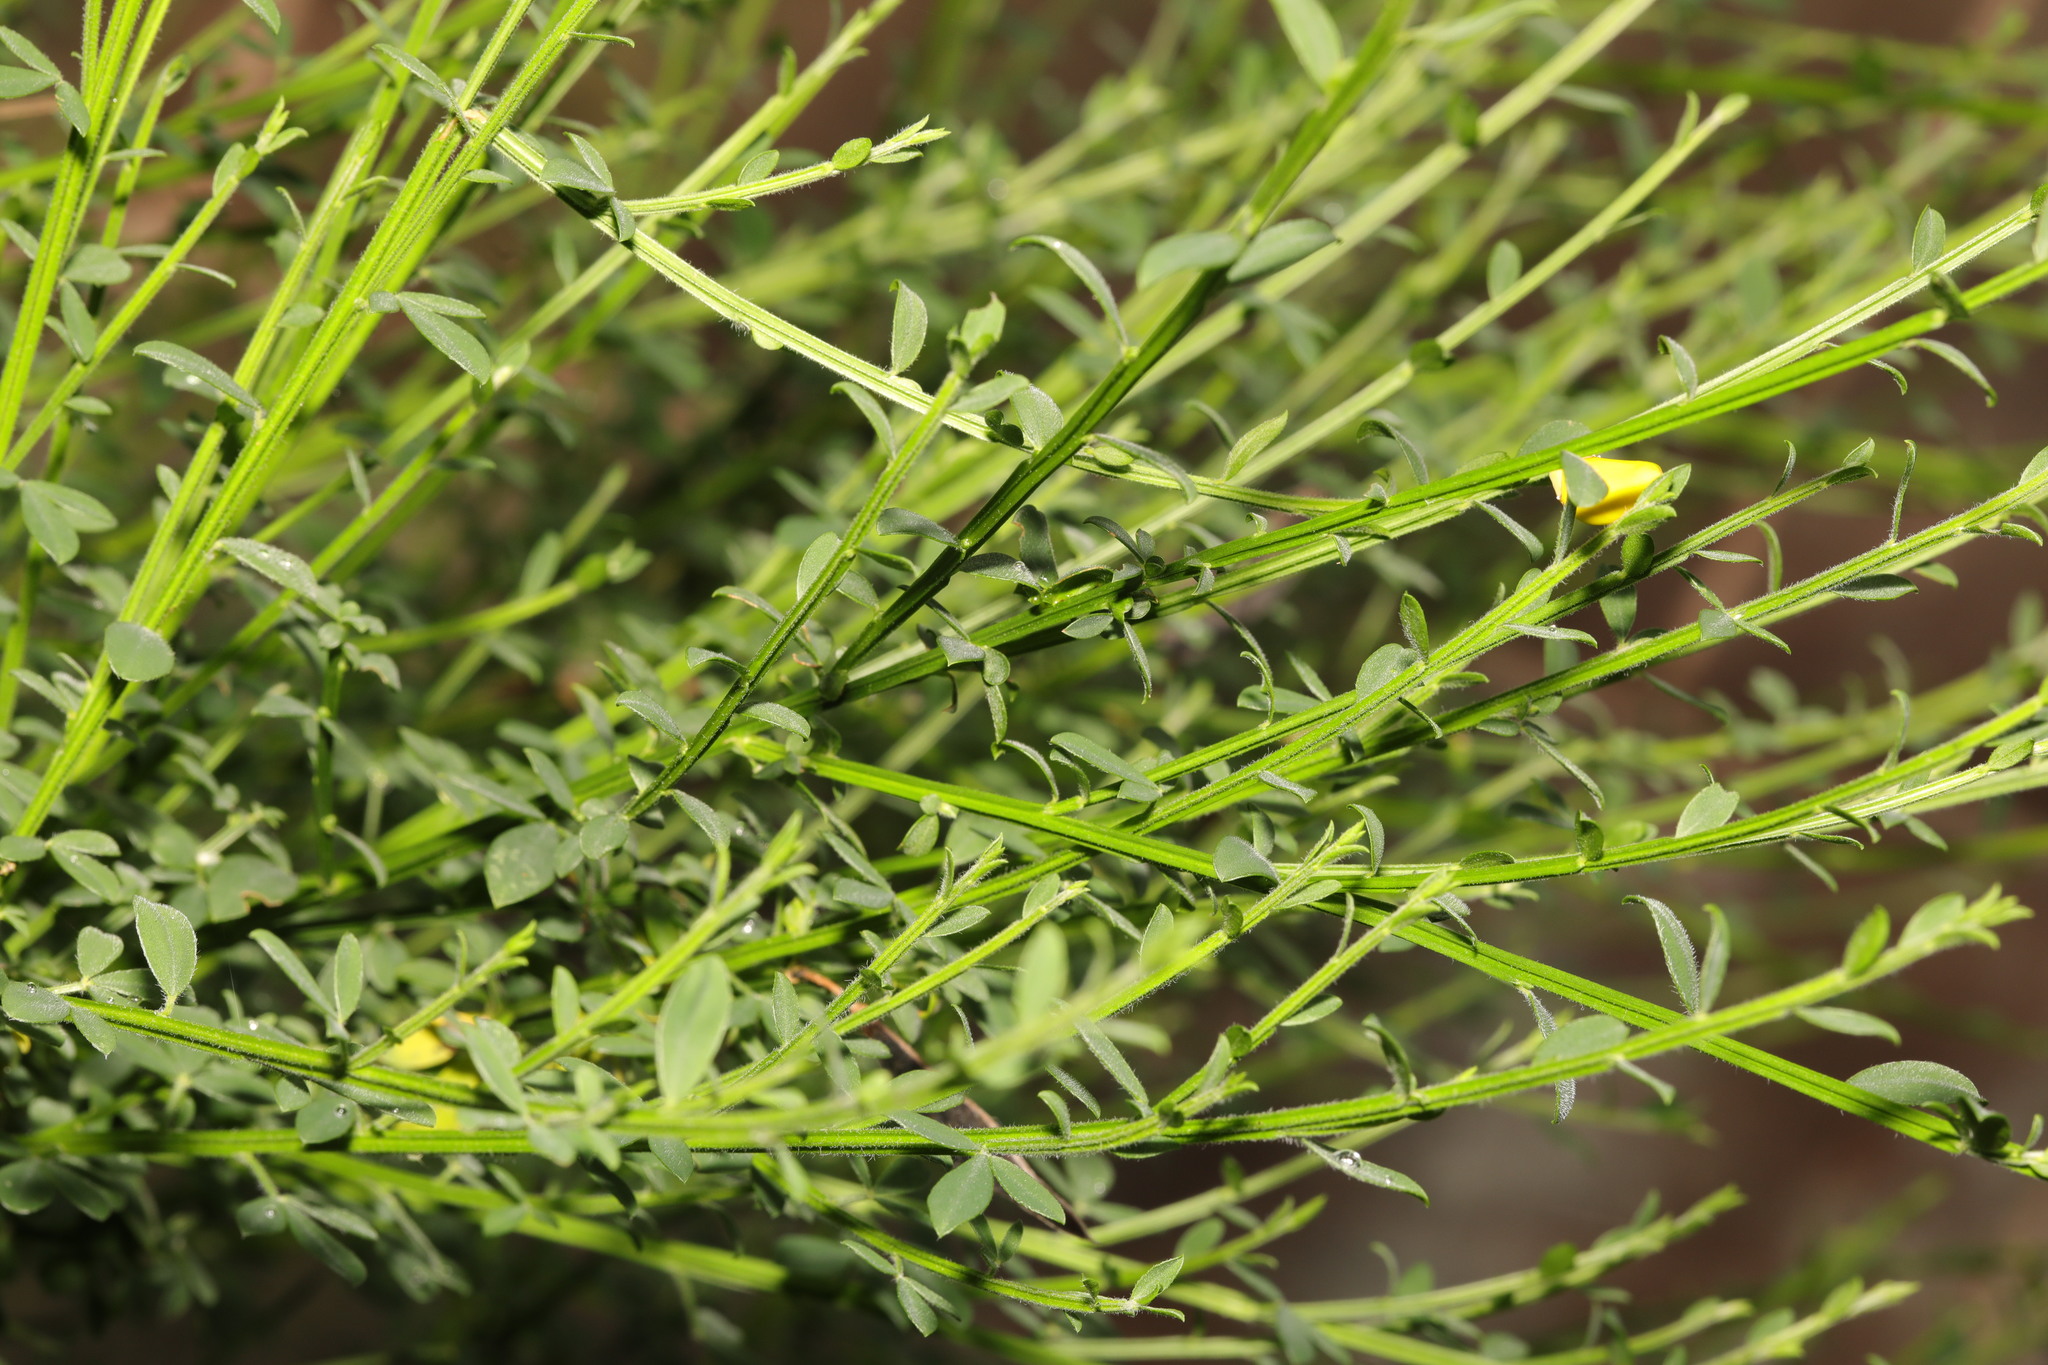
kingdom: Plantae
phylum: Tracheophyta
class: Magnoliopsida
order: Fabales
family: Fabaceae
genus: Cytisus
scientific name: Cytisus scoparius
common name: Scotch broom
